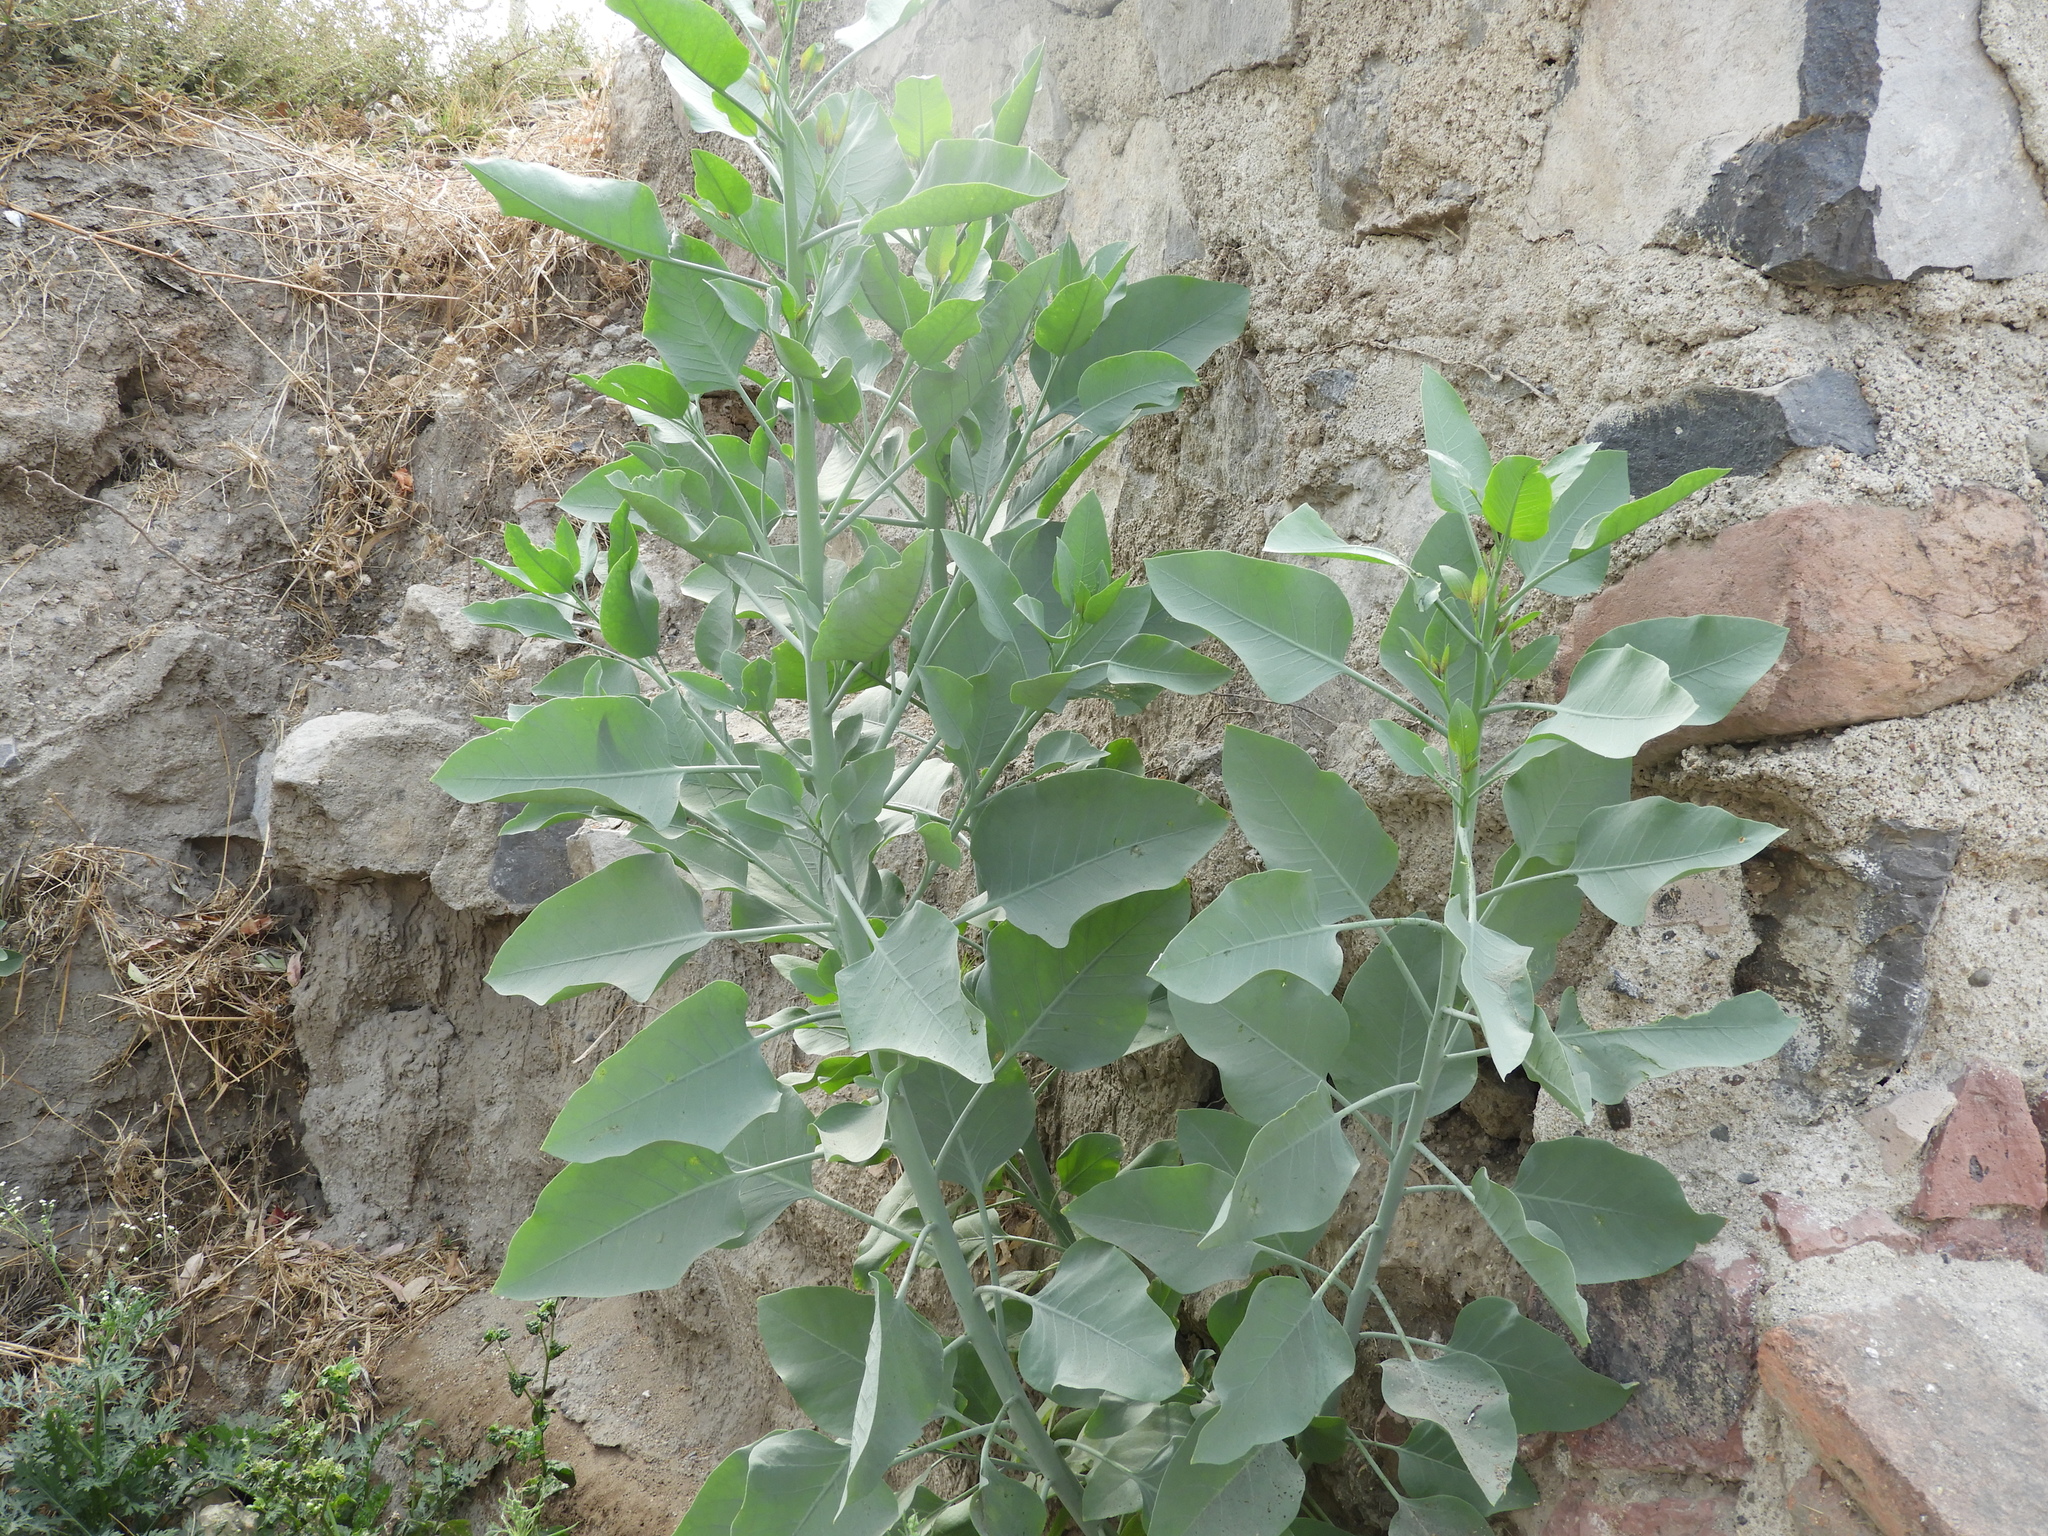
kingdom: Plantae
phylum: Tracheophyta
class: Magnoliopsida
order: Solanales
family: Solanaceae
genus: Nicotiana
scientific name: Nicotiana glauca
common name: Tree tobacco
